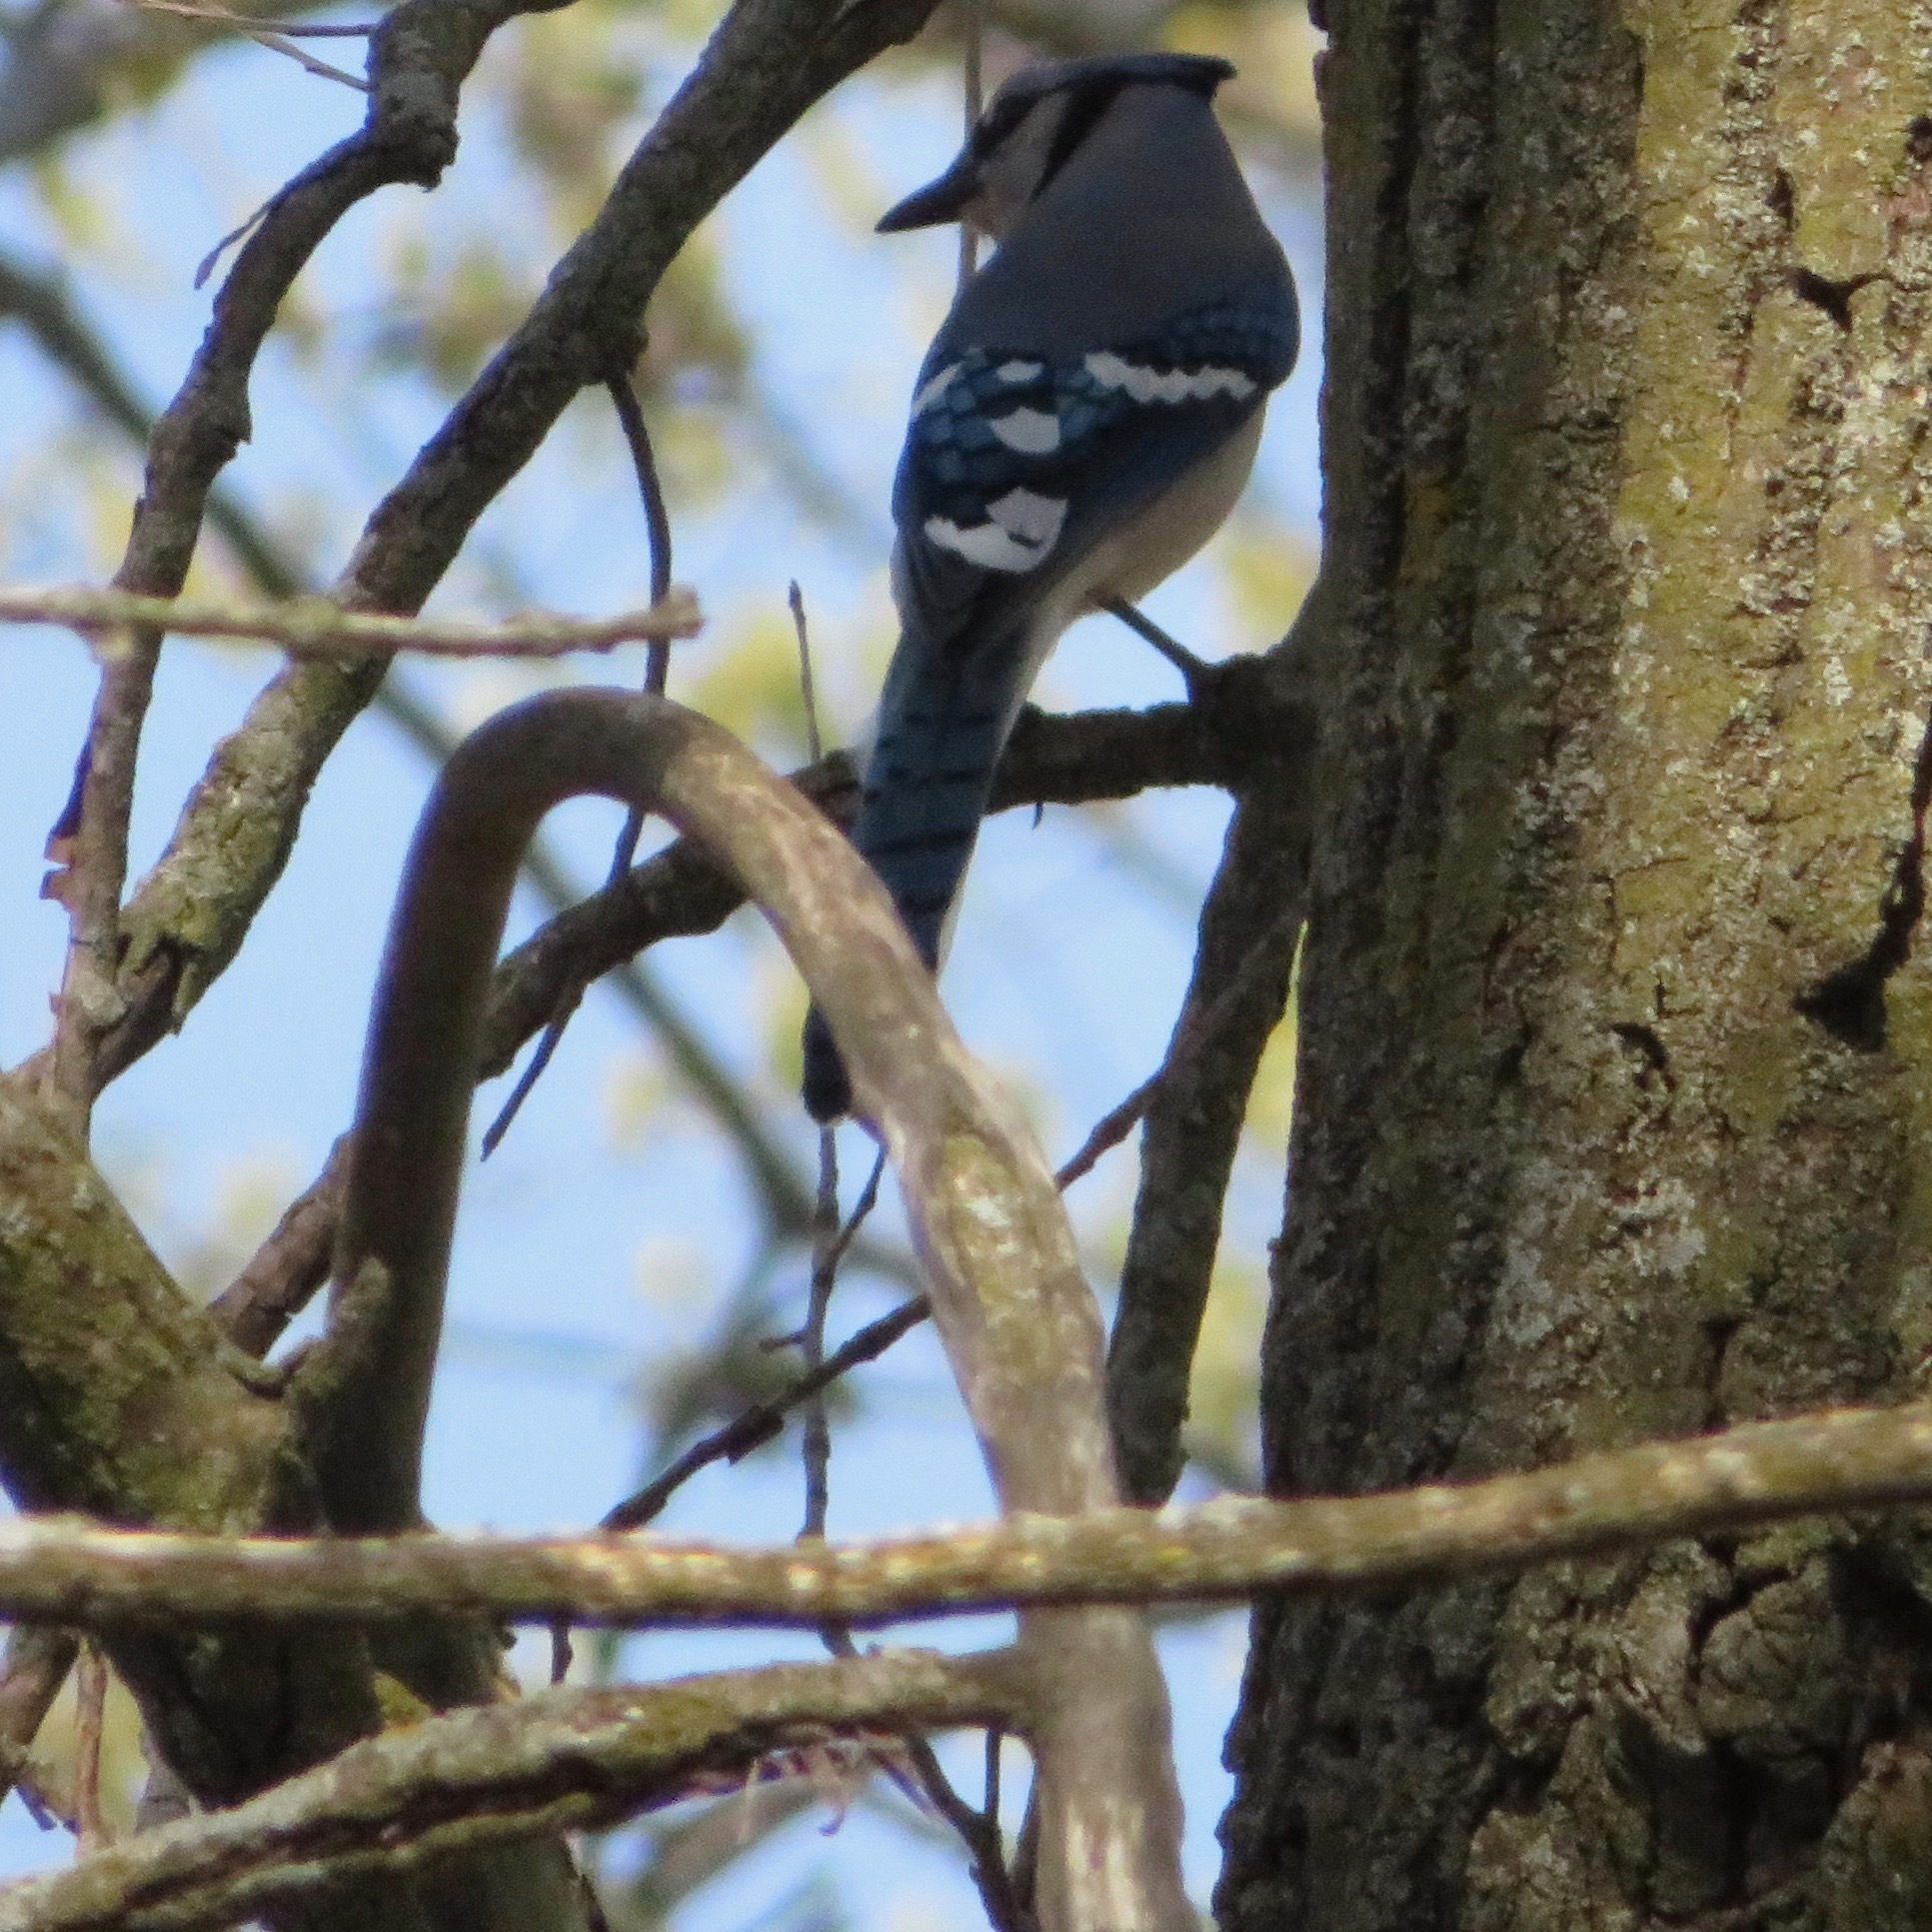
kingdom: Animalia
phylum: Chordata
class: Aves
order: Passeriformes
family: Corvidae
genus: Cyanocitta
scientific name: Cyanocitta cristata
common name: Blue jay
